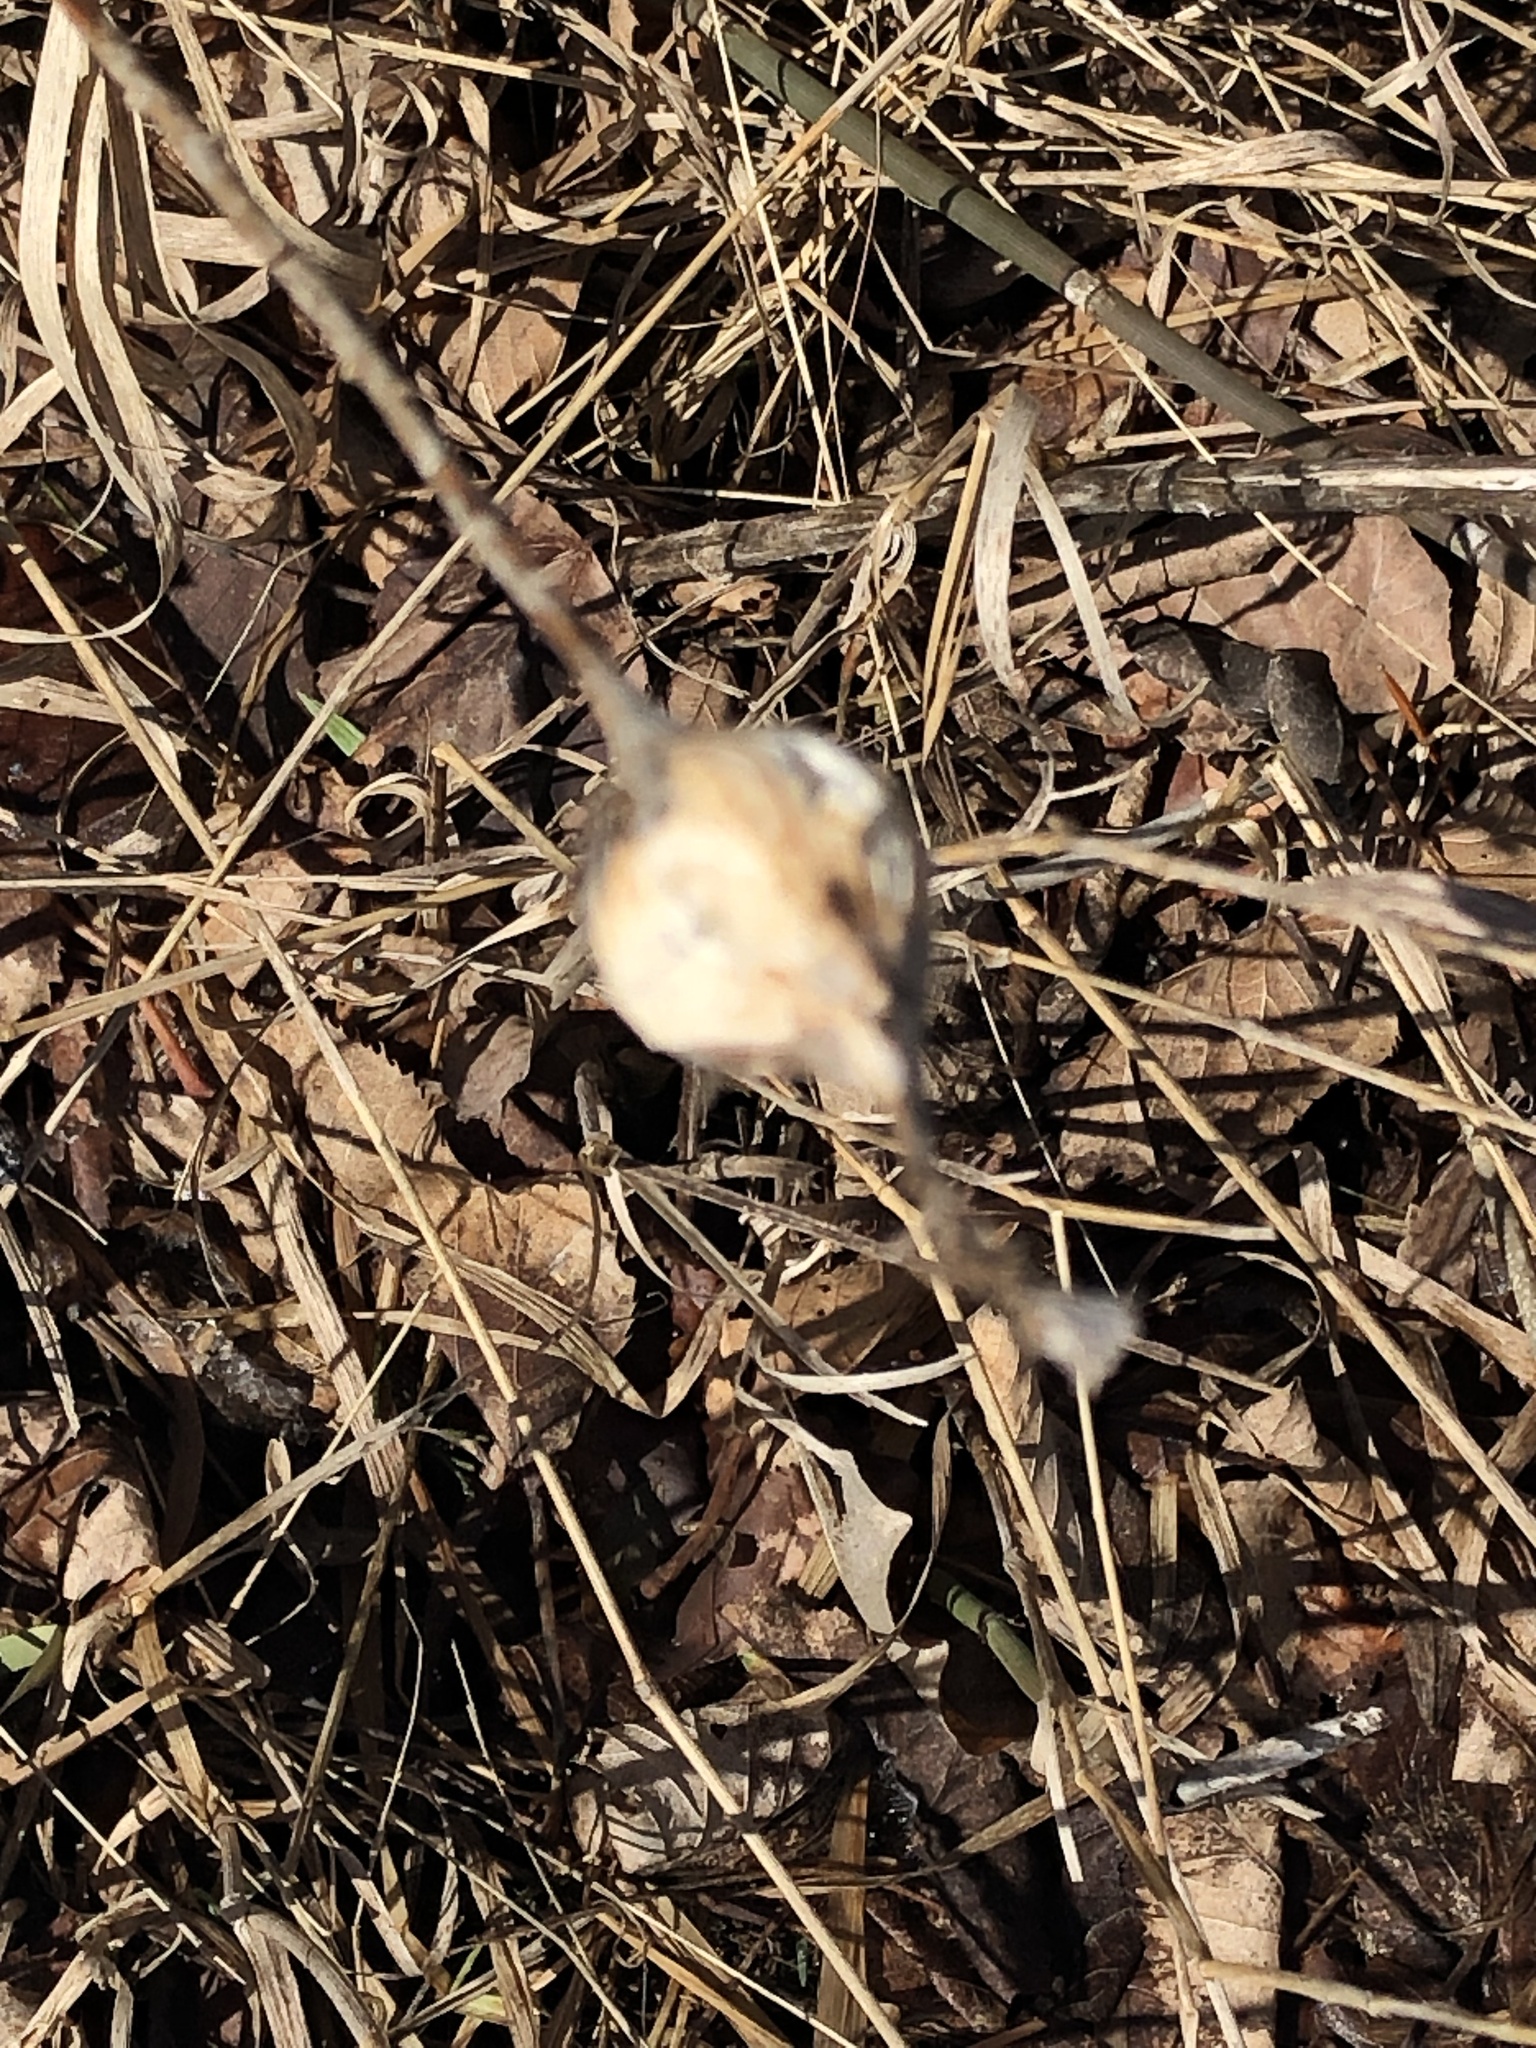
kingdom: Animalia
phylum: Arthropoda
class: Insecta
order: Diptera
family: Tephritidae
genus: Eurosta
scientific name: Eurosta solidaginis
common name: Goldenrod gall fly
